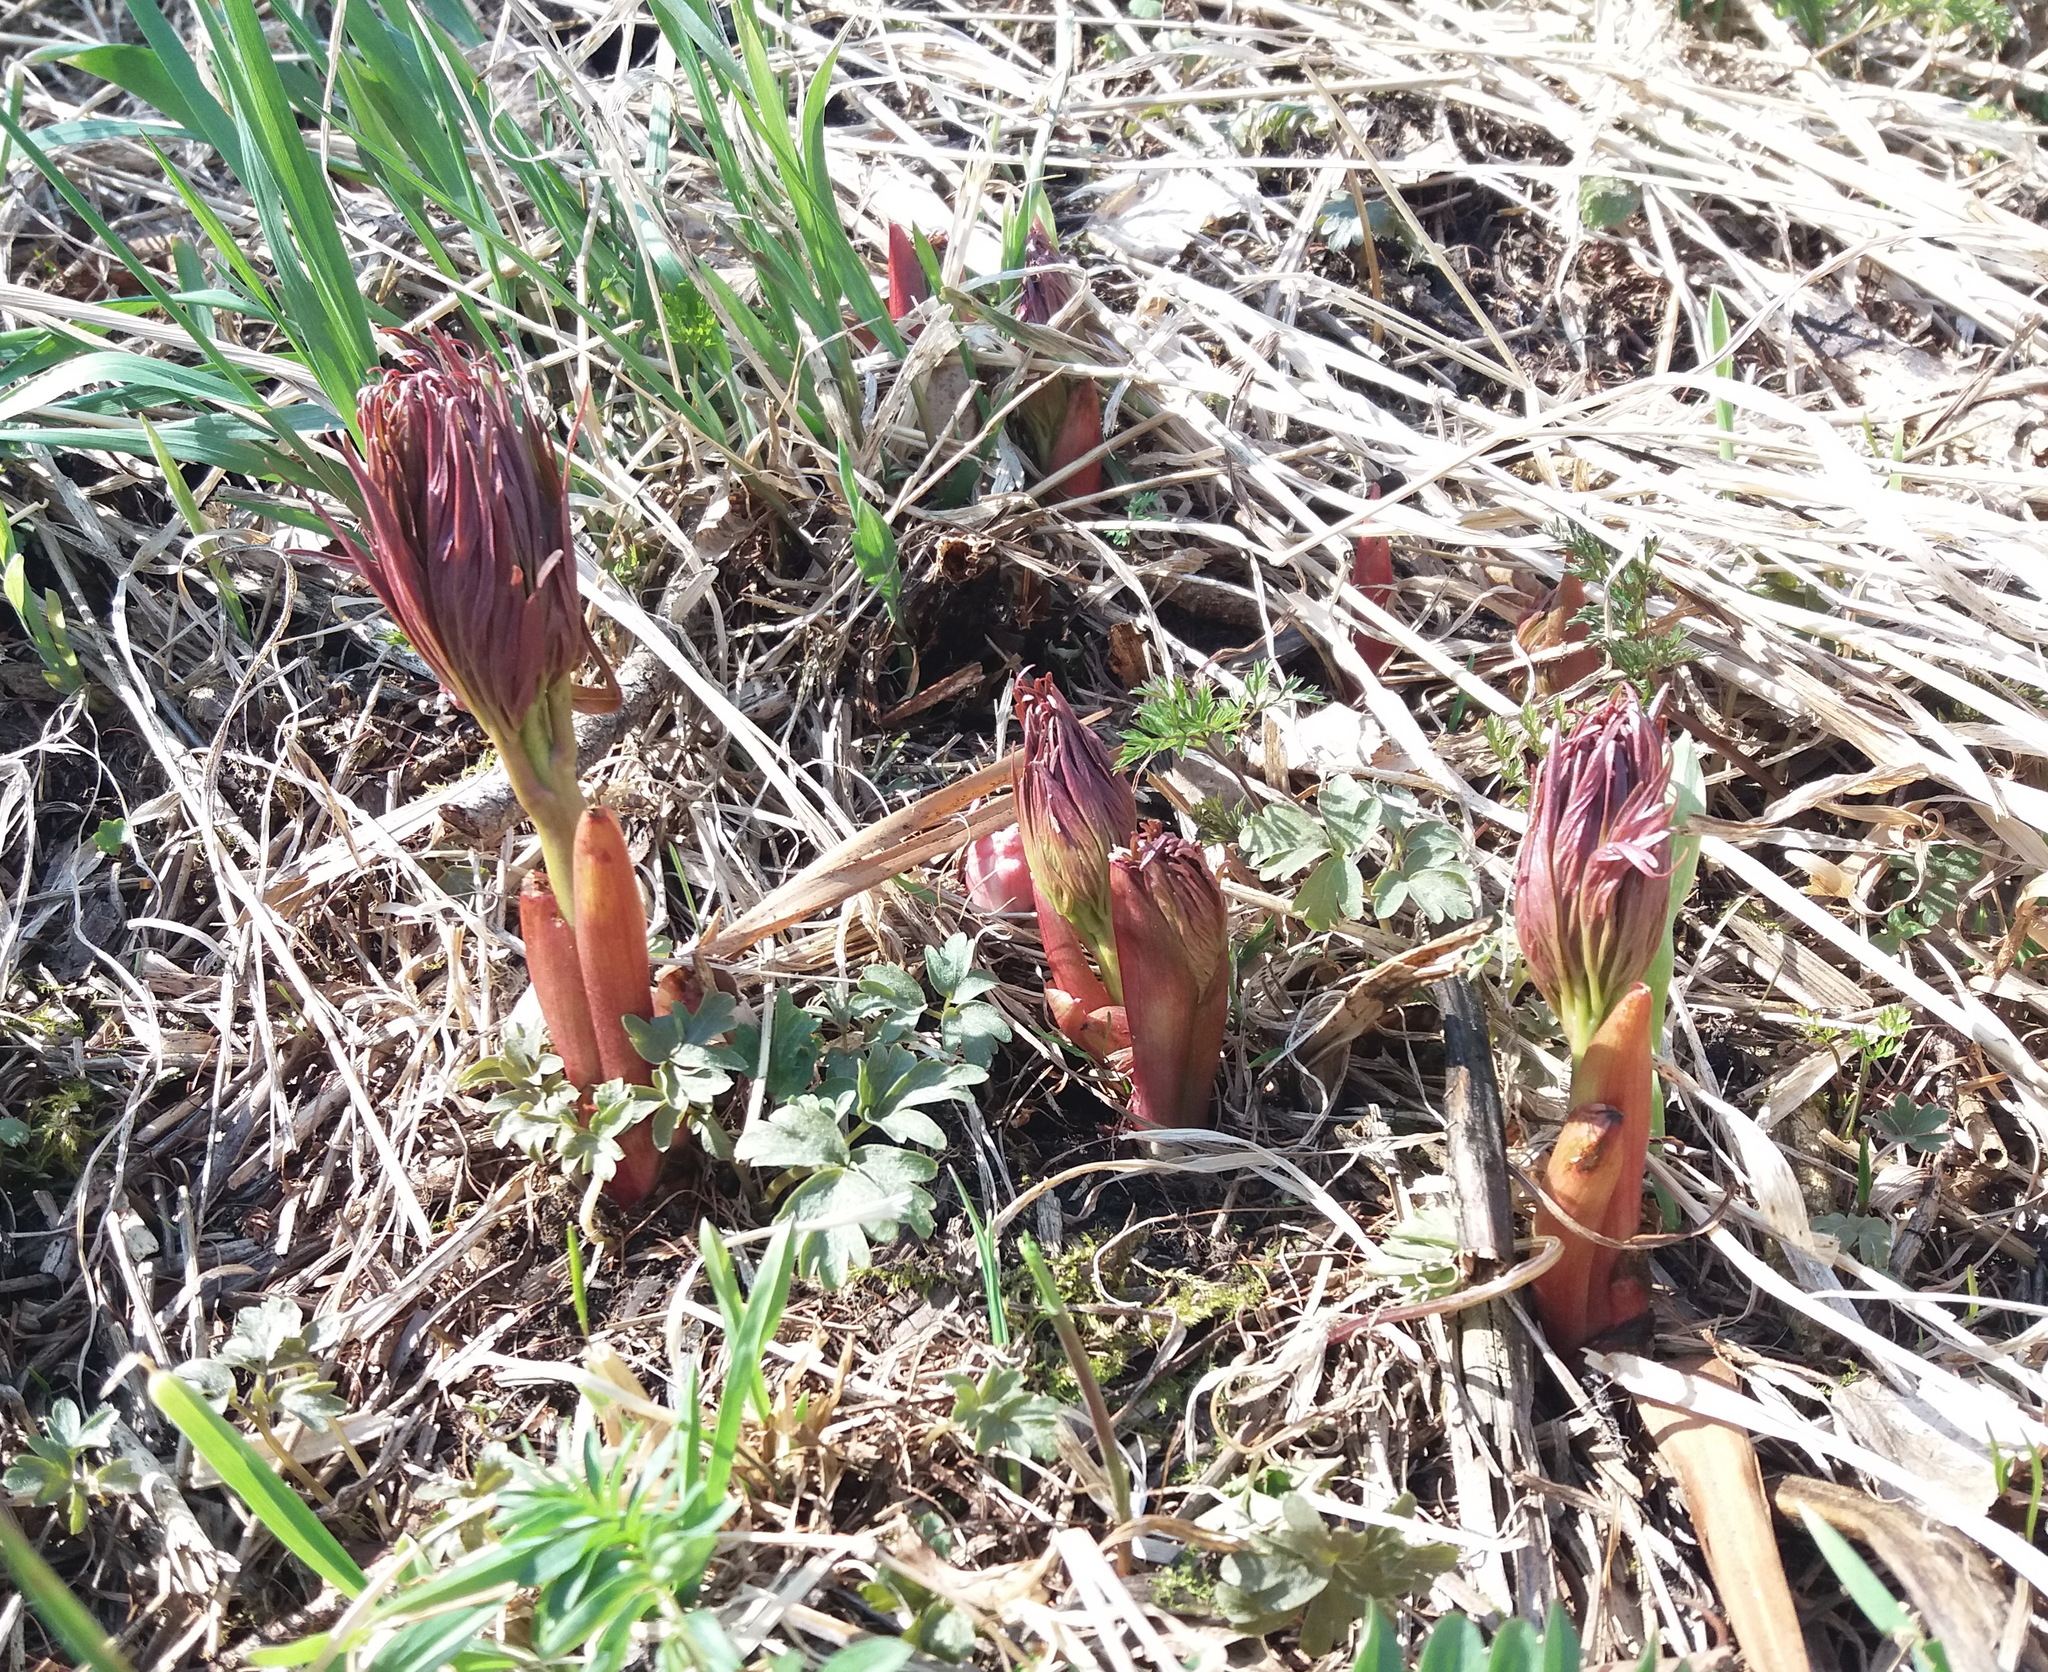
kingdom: Plantae
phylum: Tracheophyta
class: Magnoliopsida
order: Saxifragales
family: Paeoniaceae
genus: Paeonia
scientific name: Paeonia anomala
